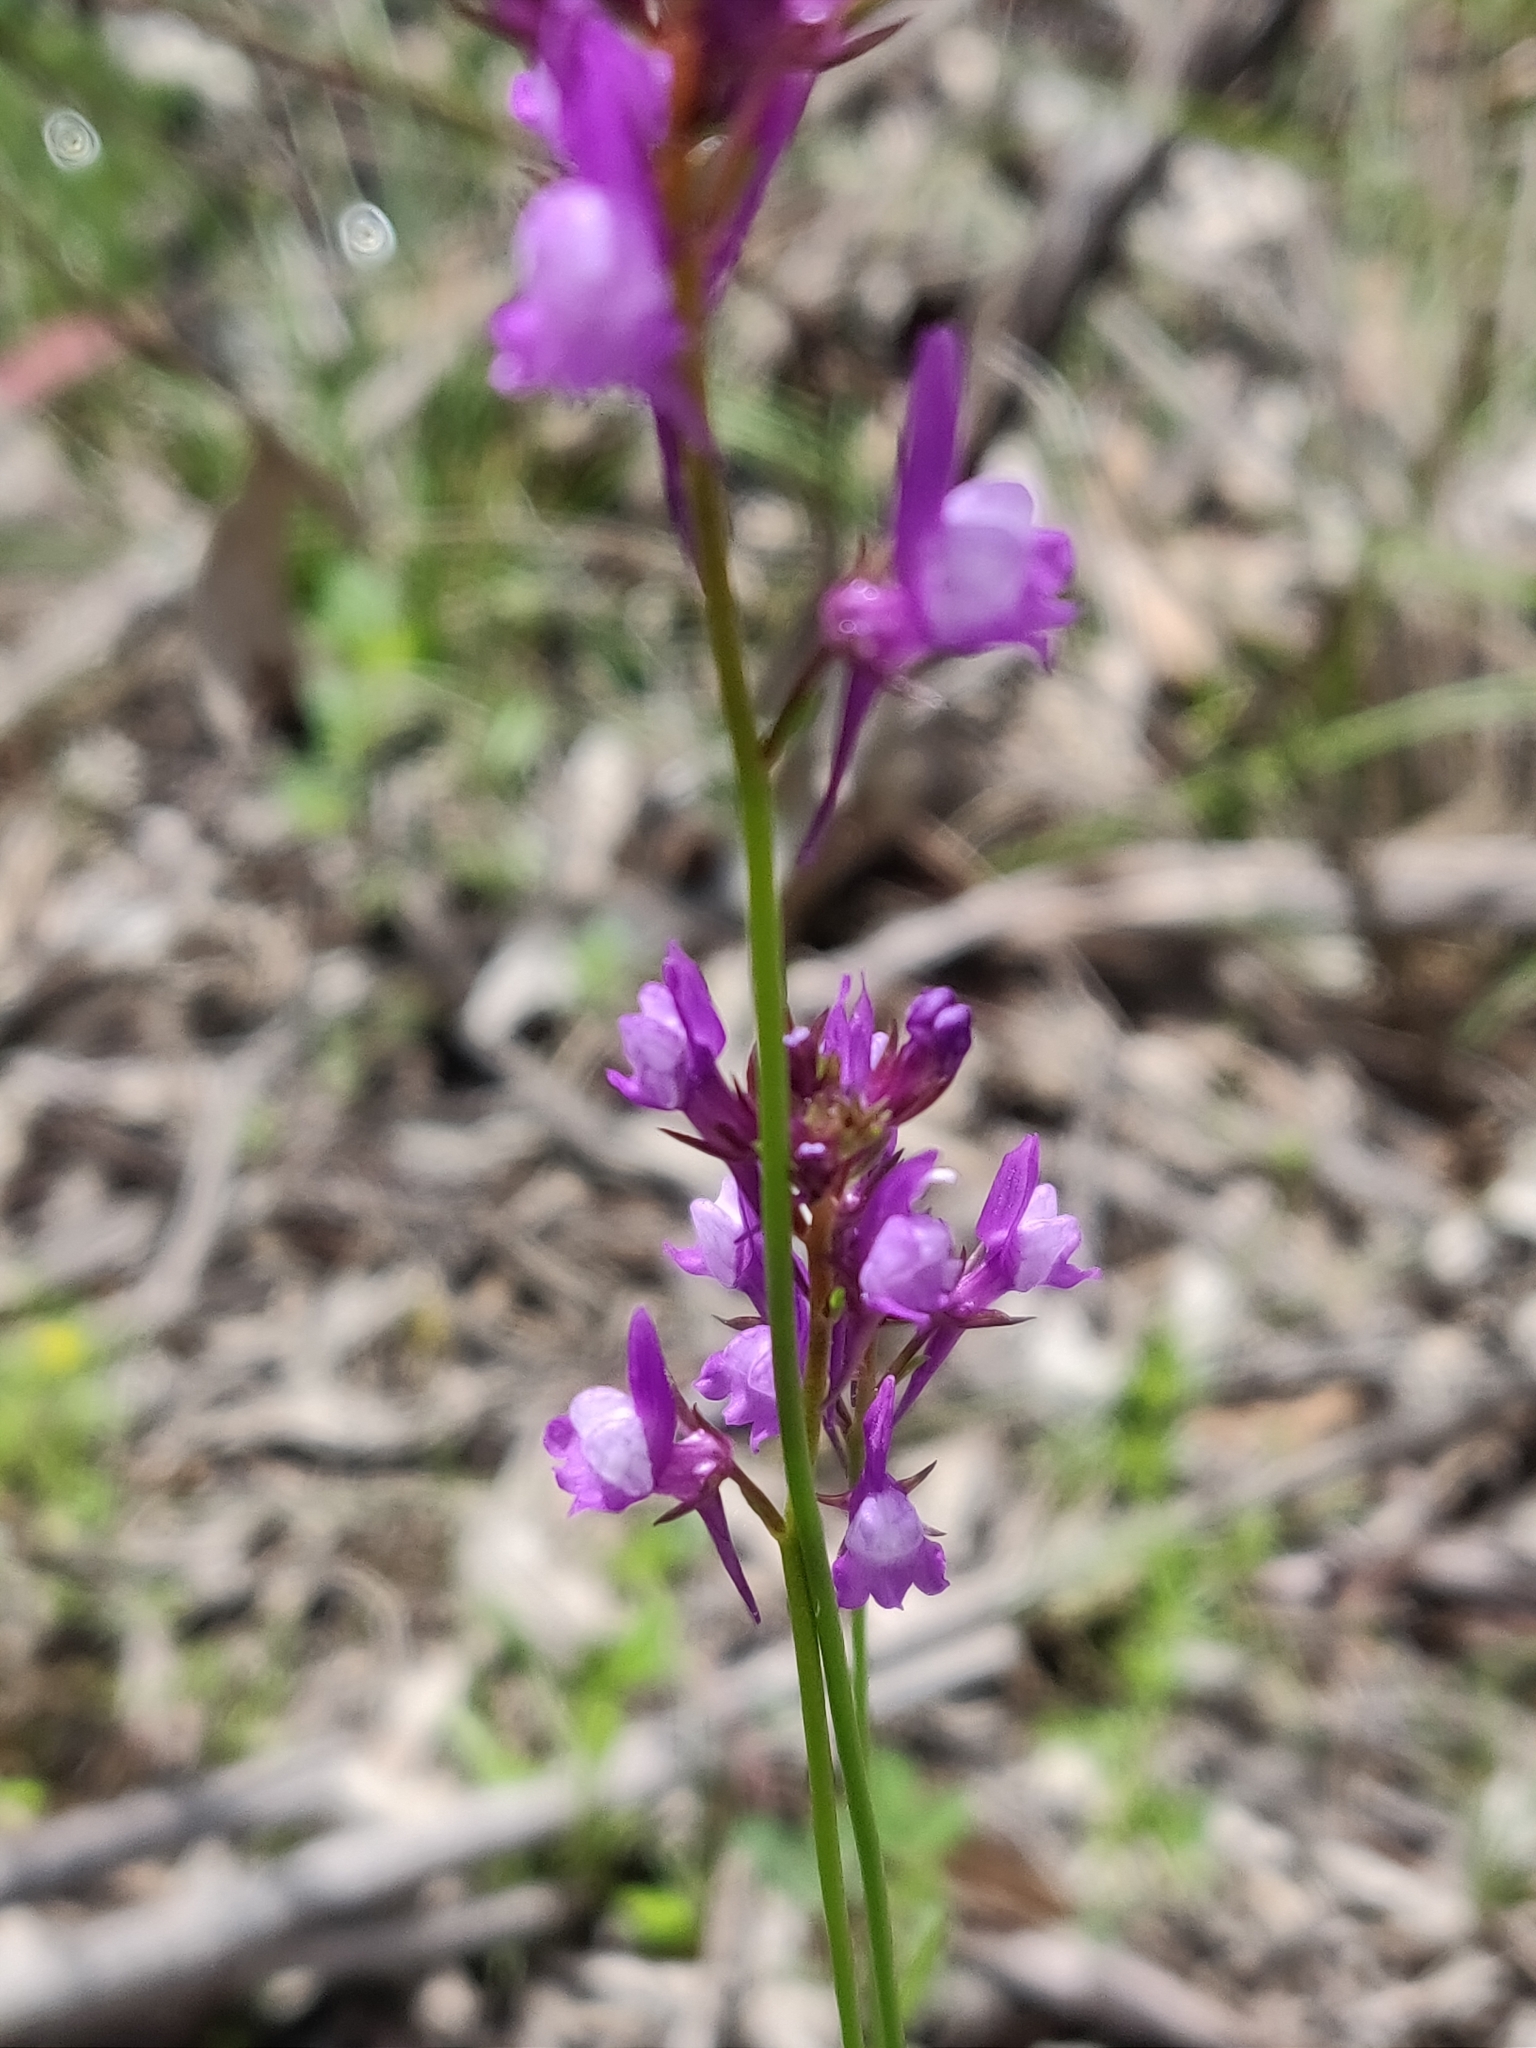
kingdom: Plantae
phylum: Tracheophyta
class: Magnoliopsida
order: Lamiales
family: Plantaginaceae
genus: Linaria
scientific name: Linaria pelisseriana
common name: Jersey toadflax
